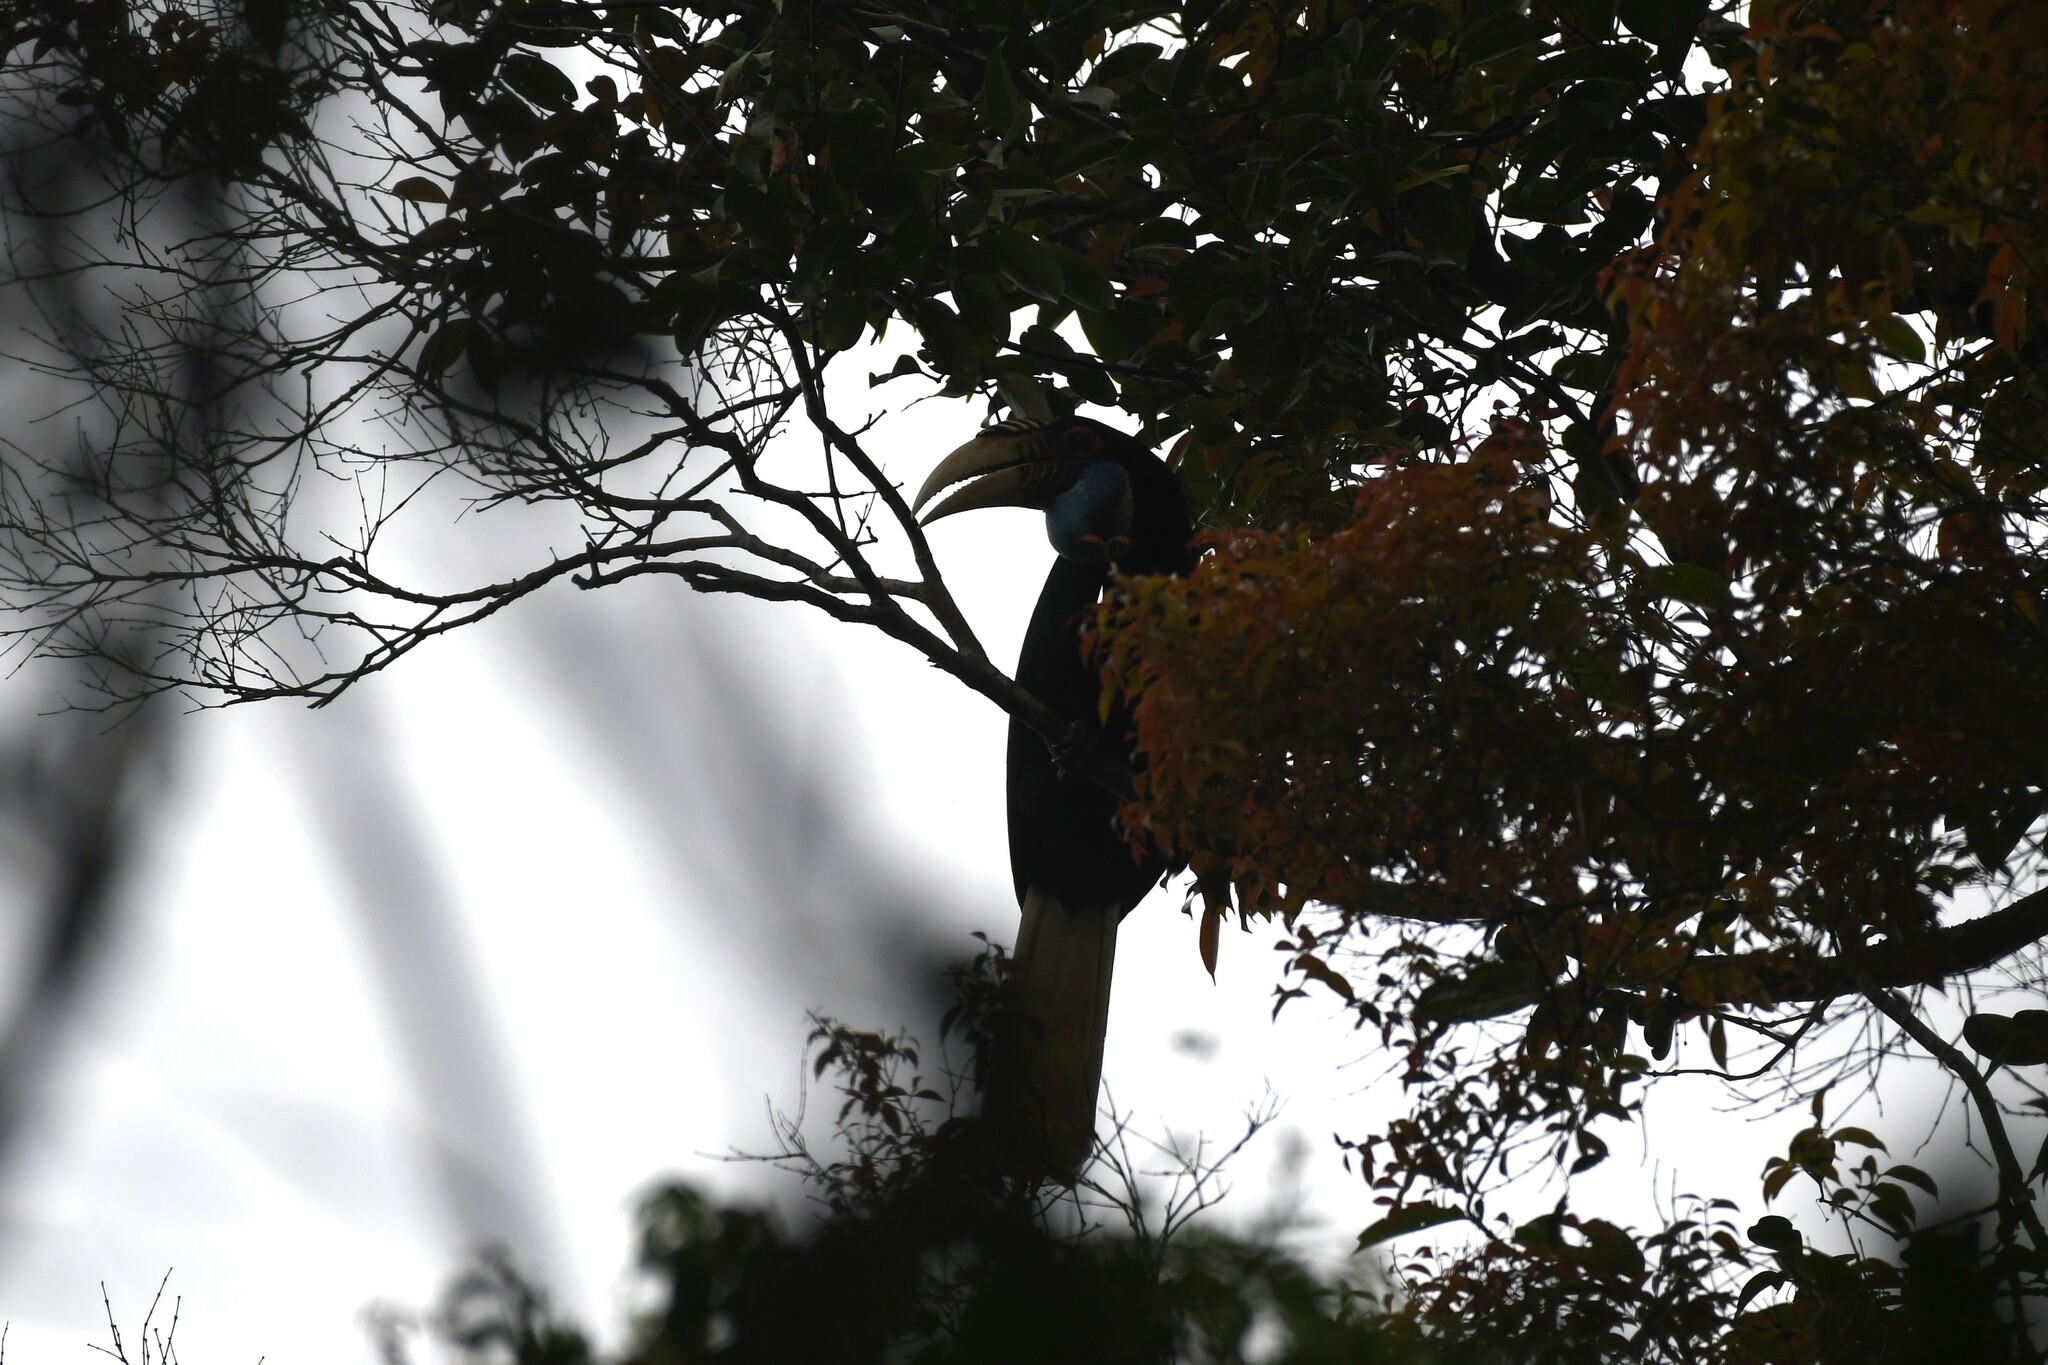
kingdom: Animalia
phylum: Chordata
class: Aves
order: Bucerotiformes
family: Bucerotidae
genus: Rhyticeros
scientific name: Rhyticeros undulatus
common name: Wreathed hornbill
